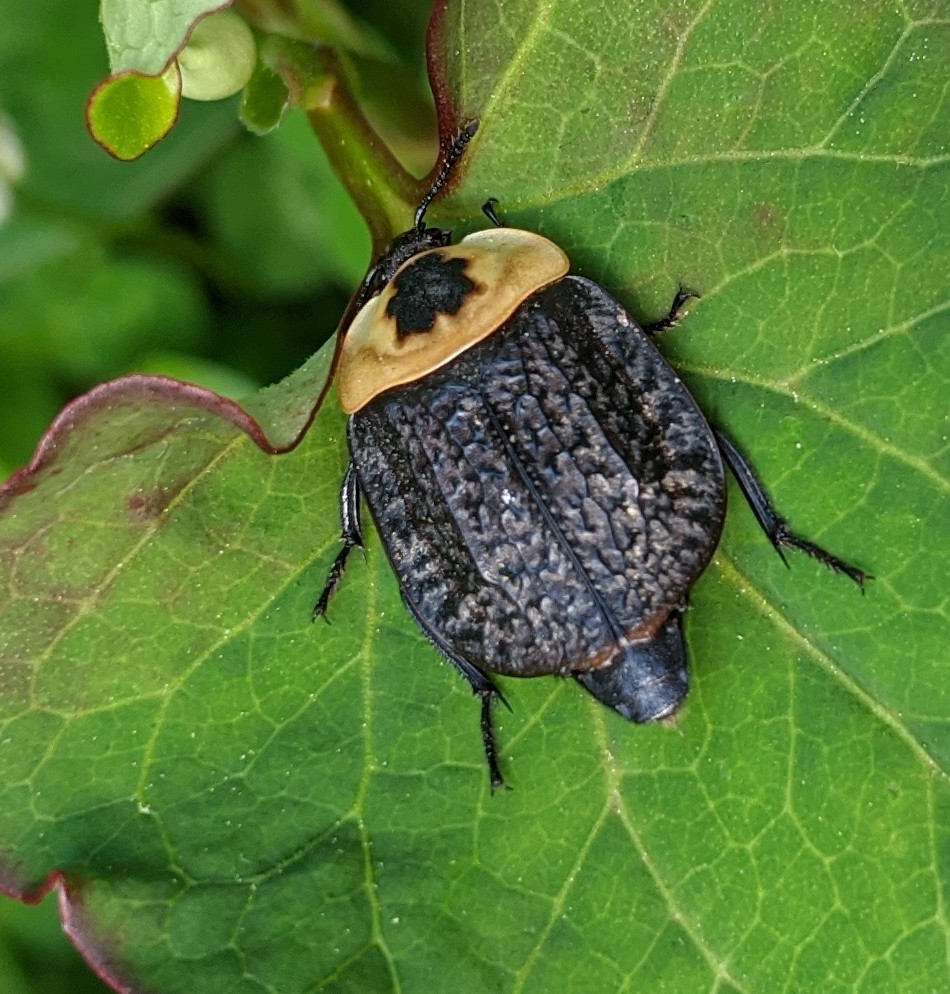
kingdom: Animalia
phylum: Arthropoda
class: Insecta
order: Coleoptera
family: Staphylinidae
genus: Necrophila
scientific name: Necrophila americana
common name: American carrion beetle
